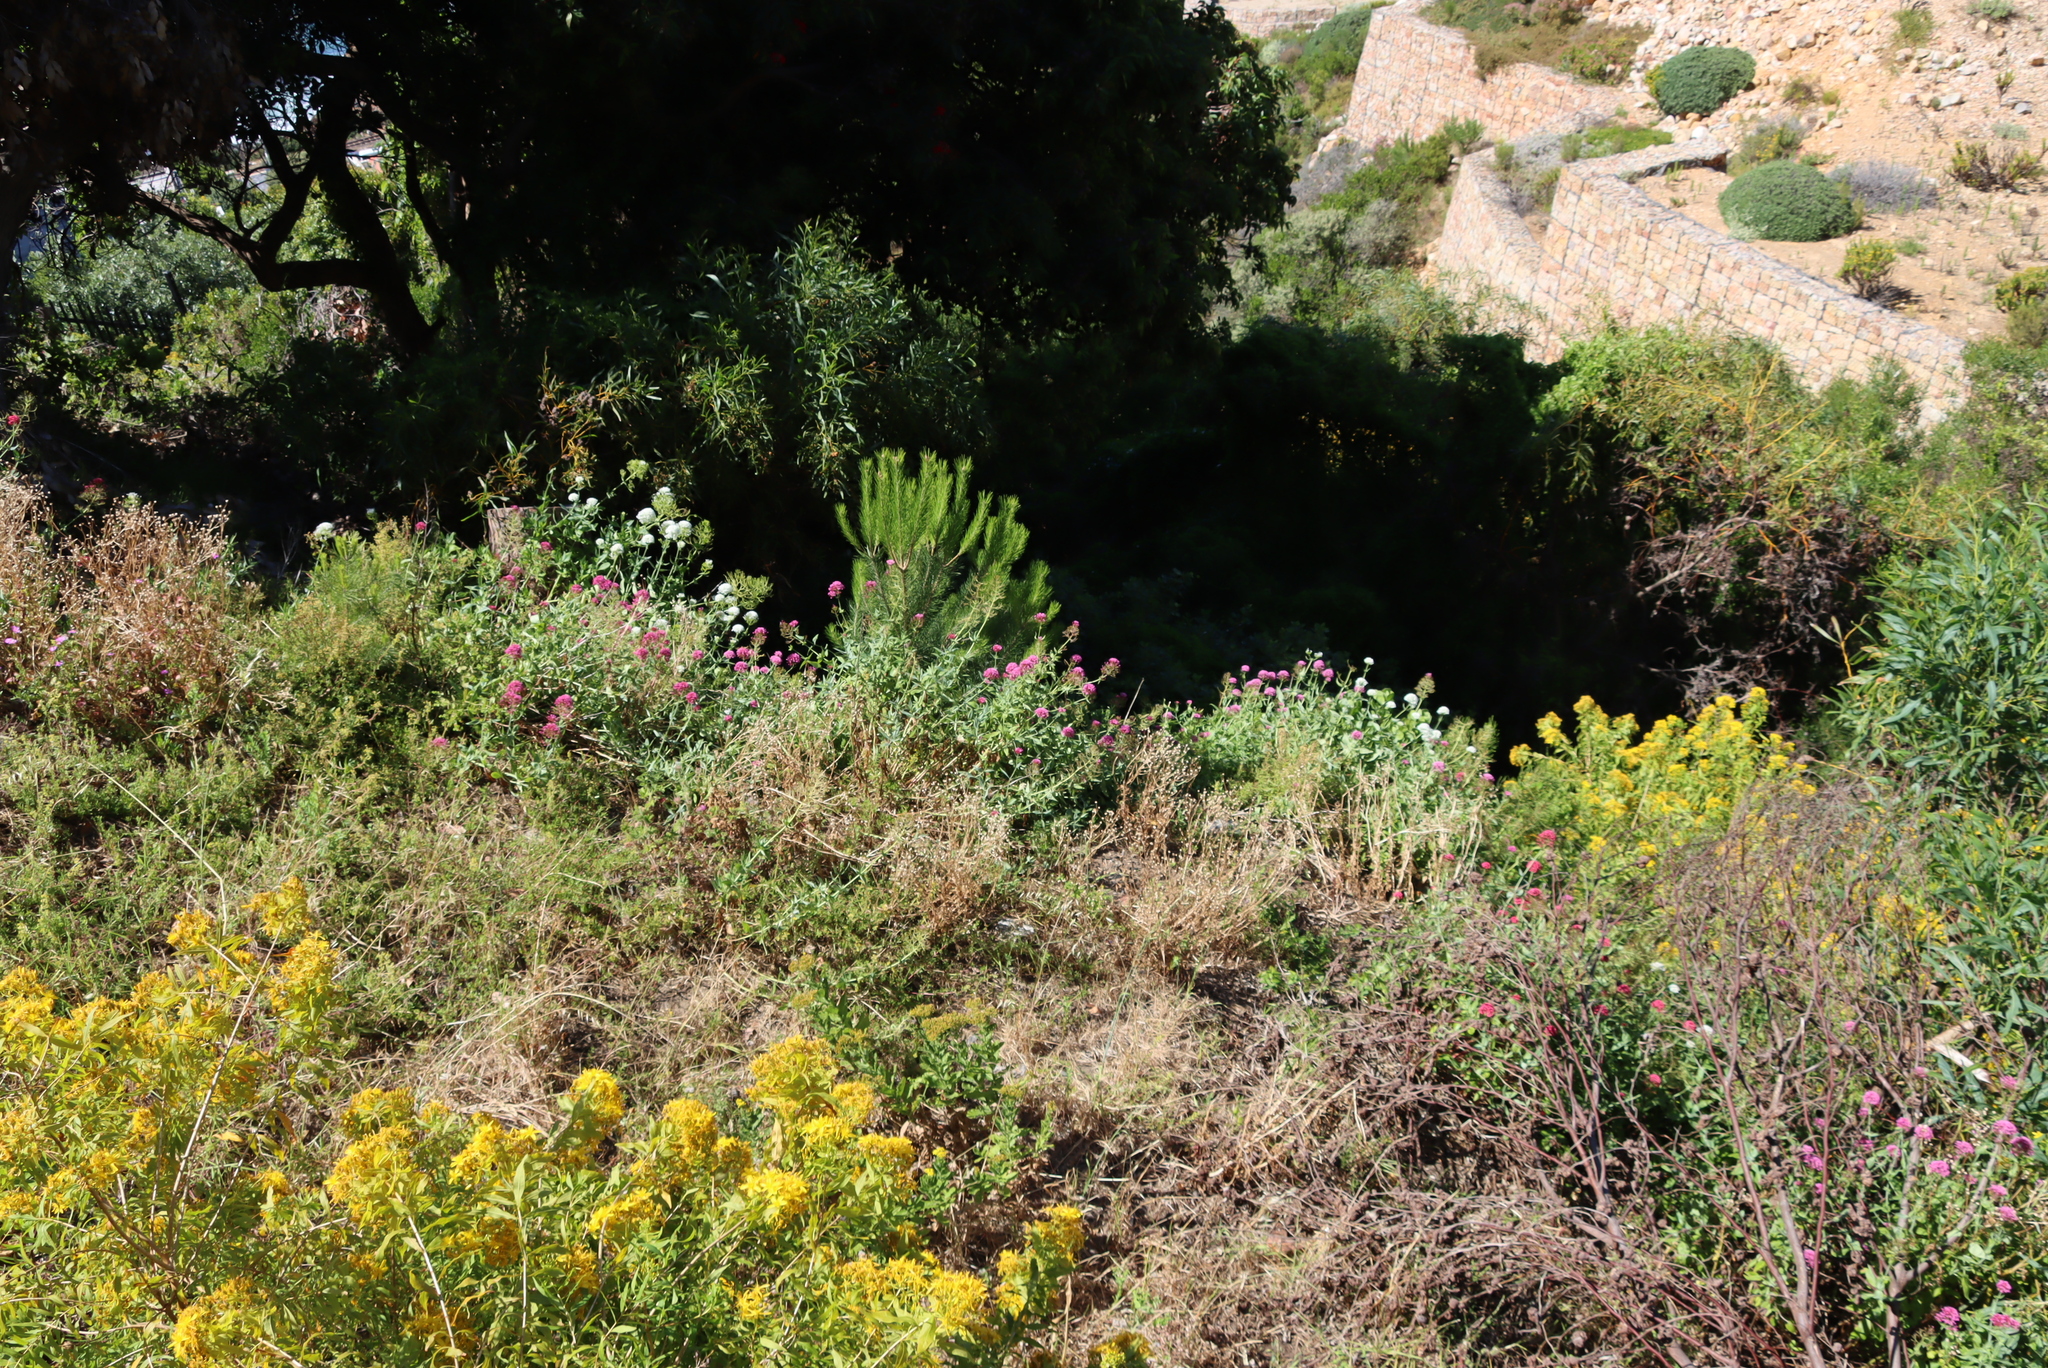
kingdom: Plantae
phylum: Tracheophyta
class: Magnoliopsida
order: Dipsacales
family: Caprifoliaceae
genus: Centranthus
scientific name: Centranthus ruber
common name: Red valerian
